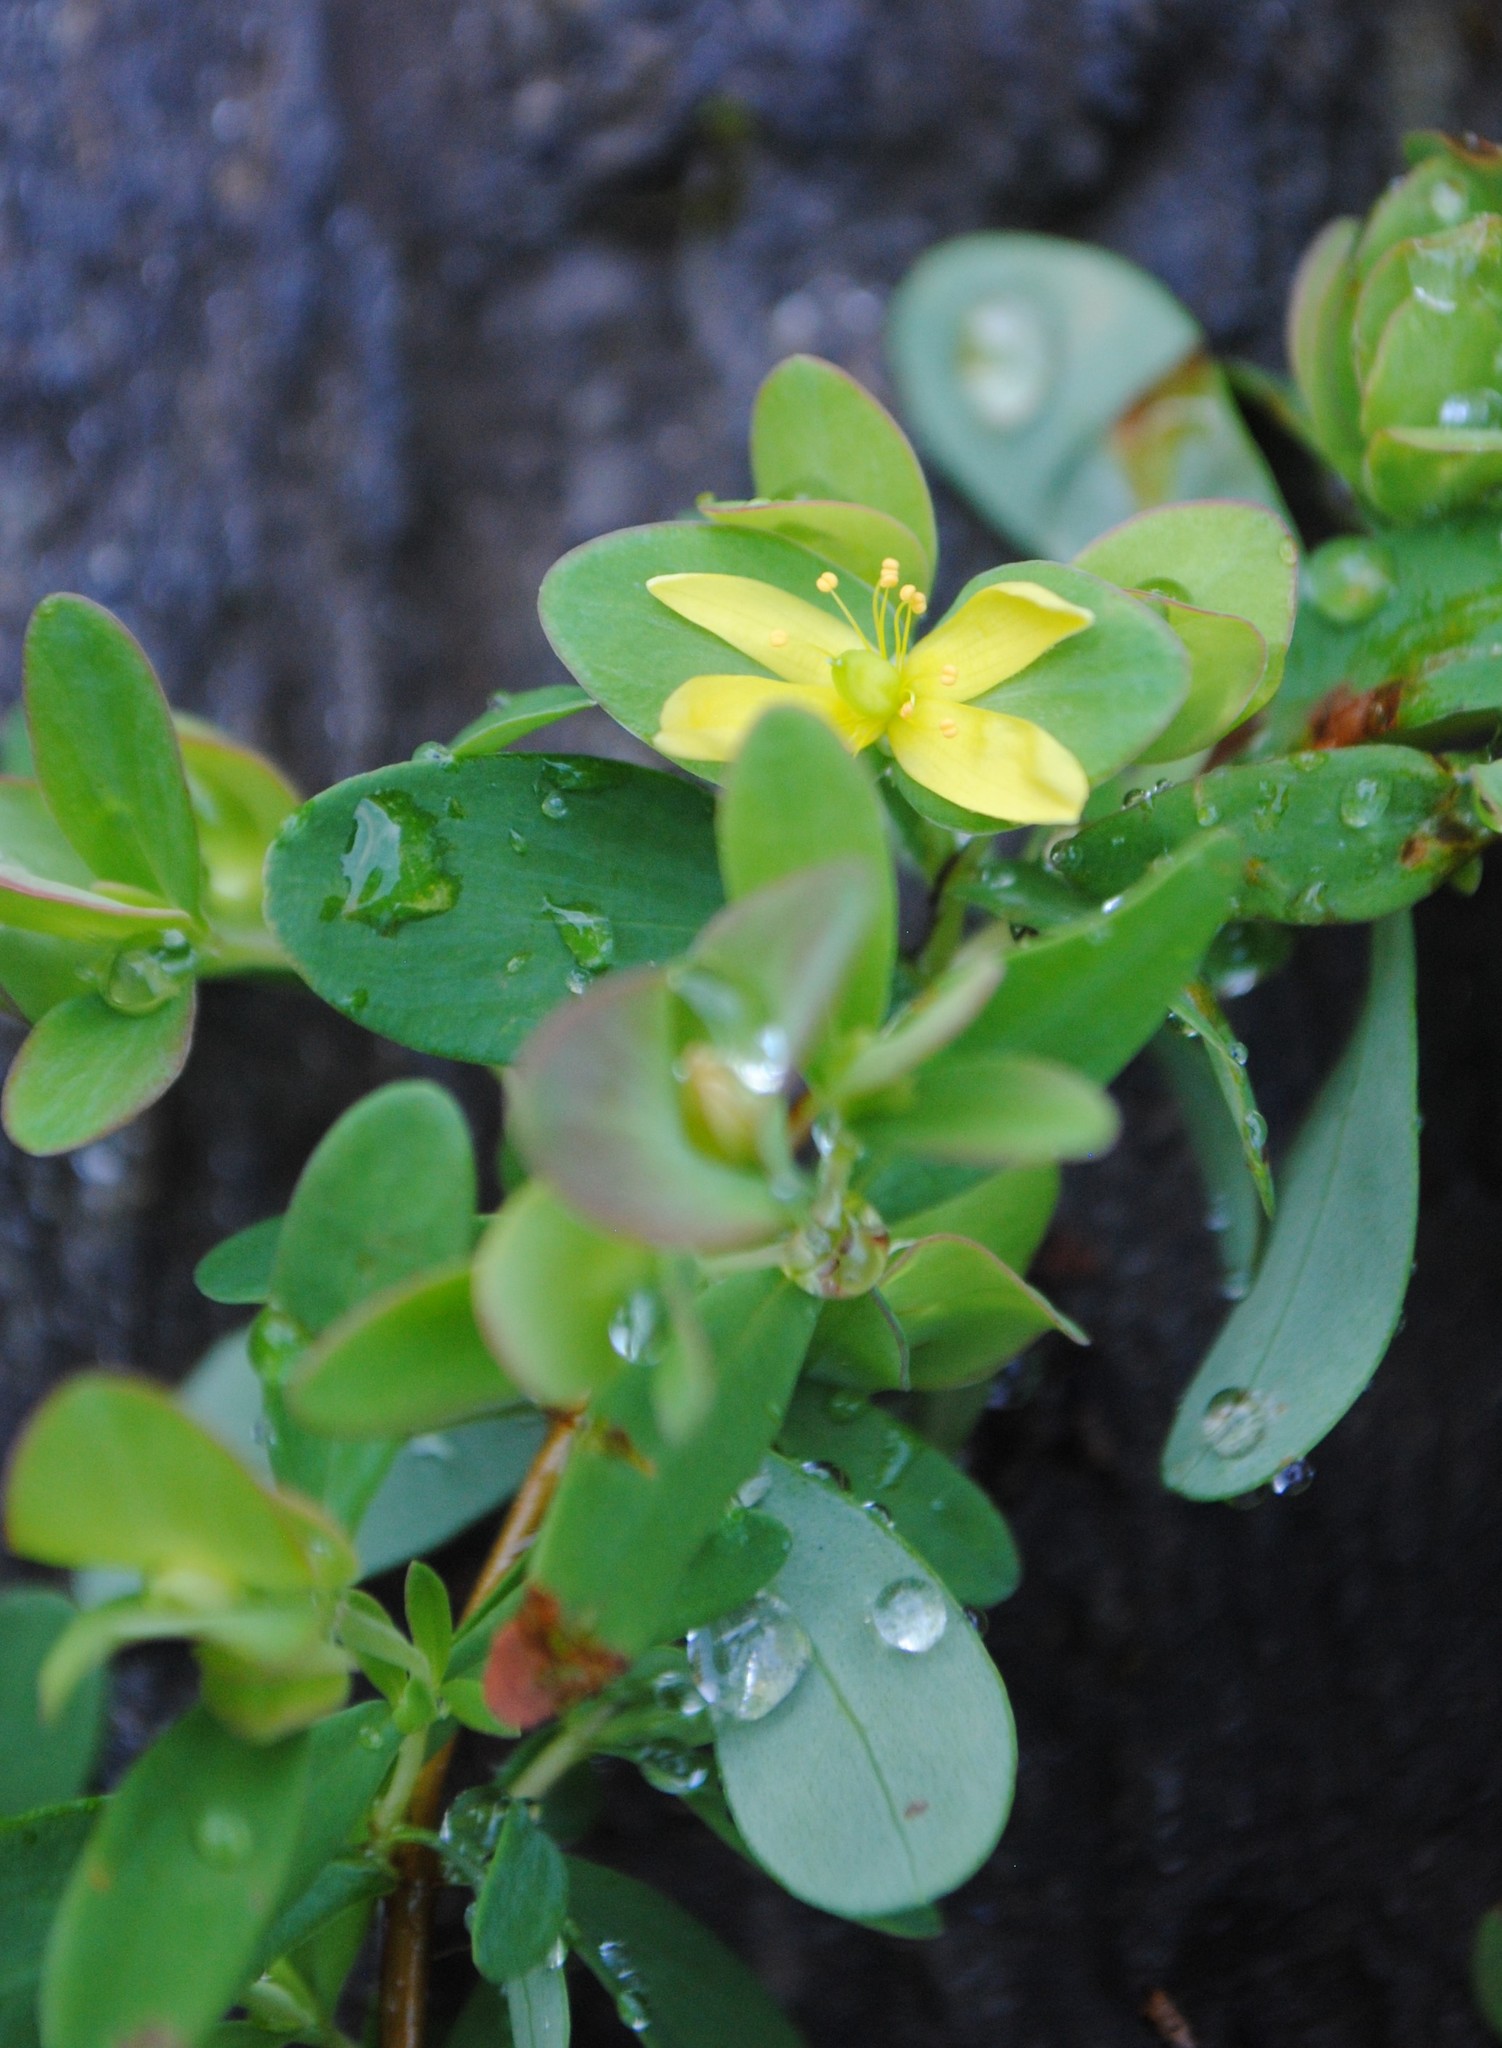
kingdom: Plantae
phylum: Tracheophyta
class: Magnoliopsida
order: Malpighiales
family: Hypericaceae
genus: Hypericum
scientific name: Hypericum hypericoides
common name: St. andrew's cross
